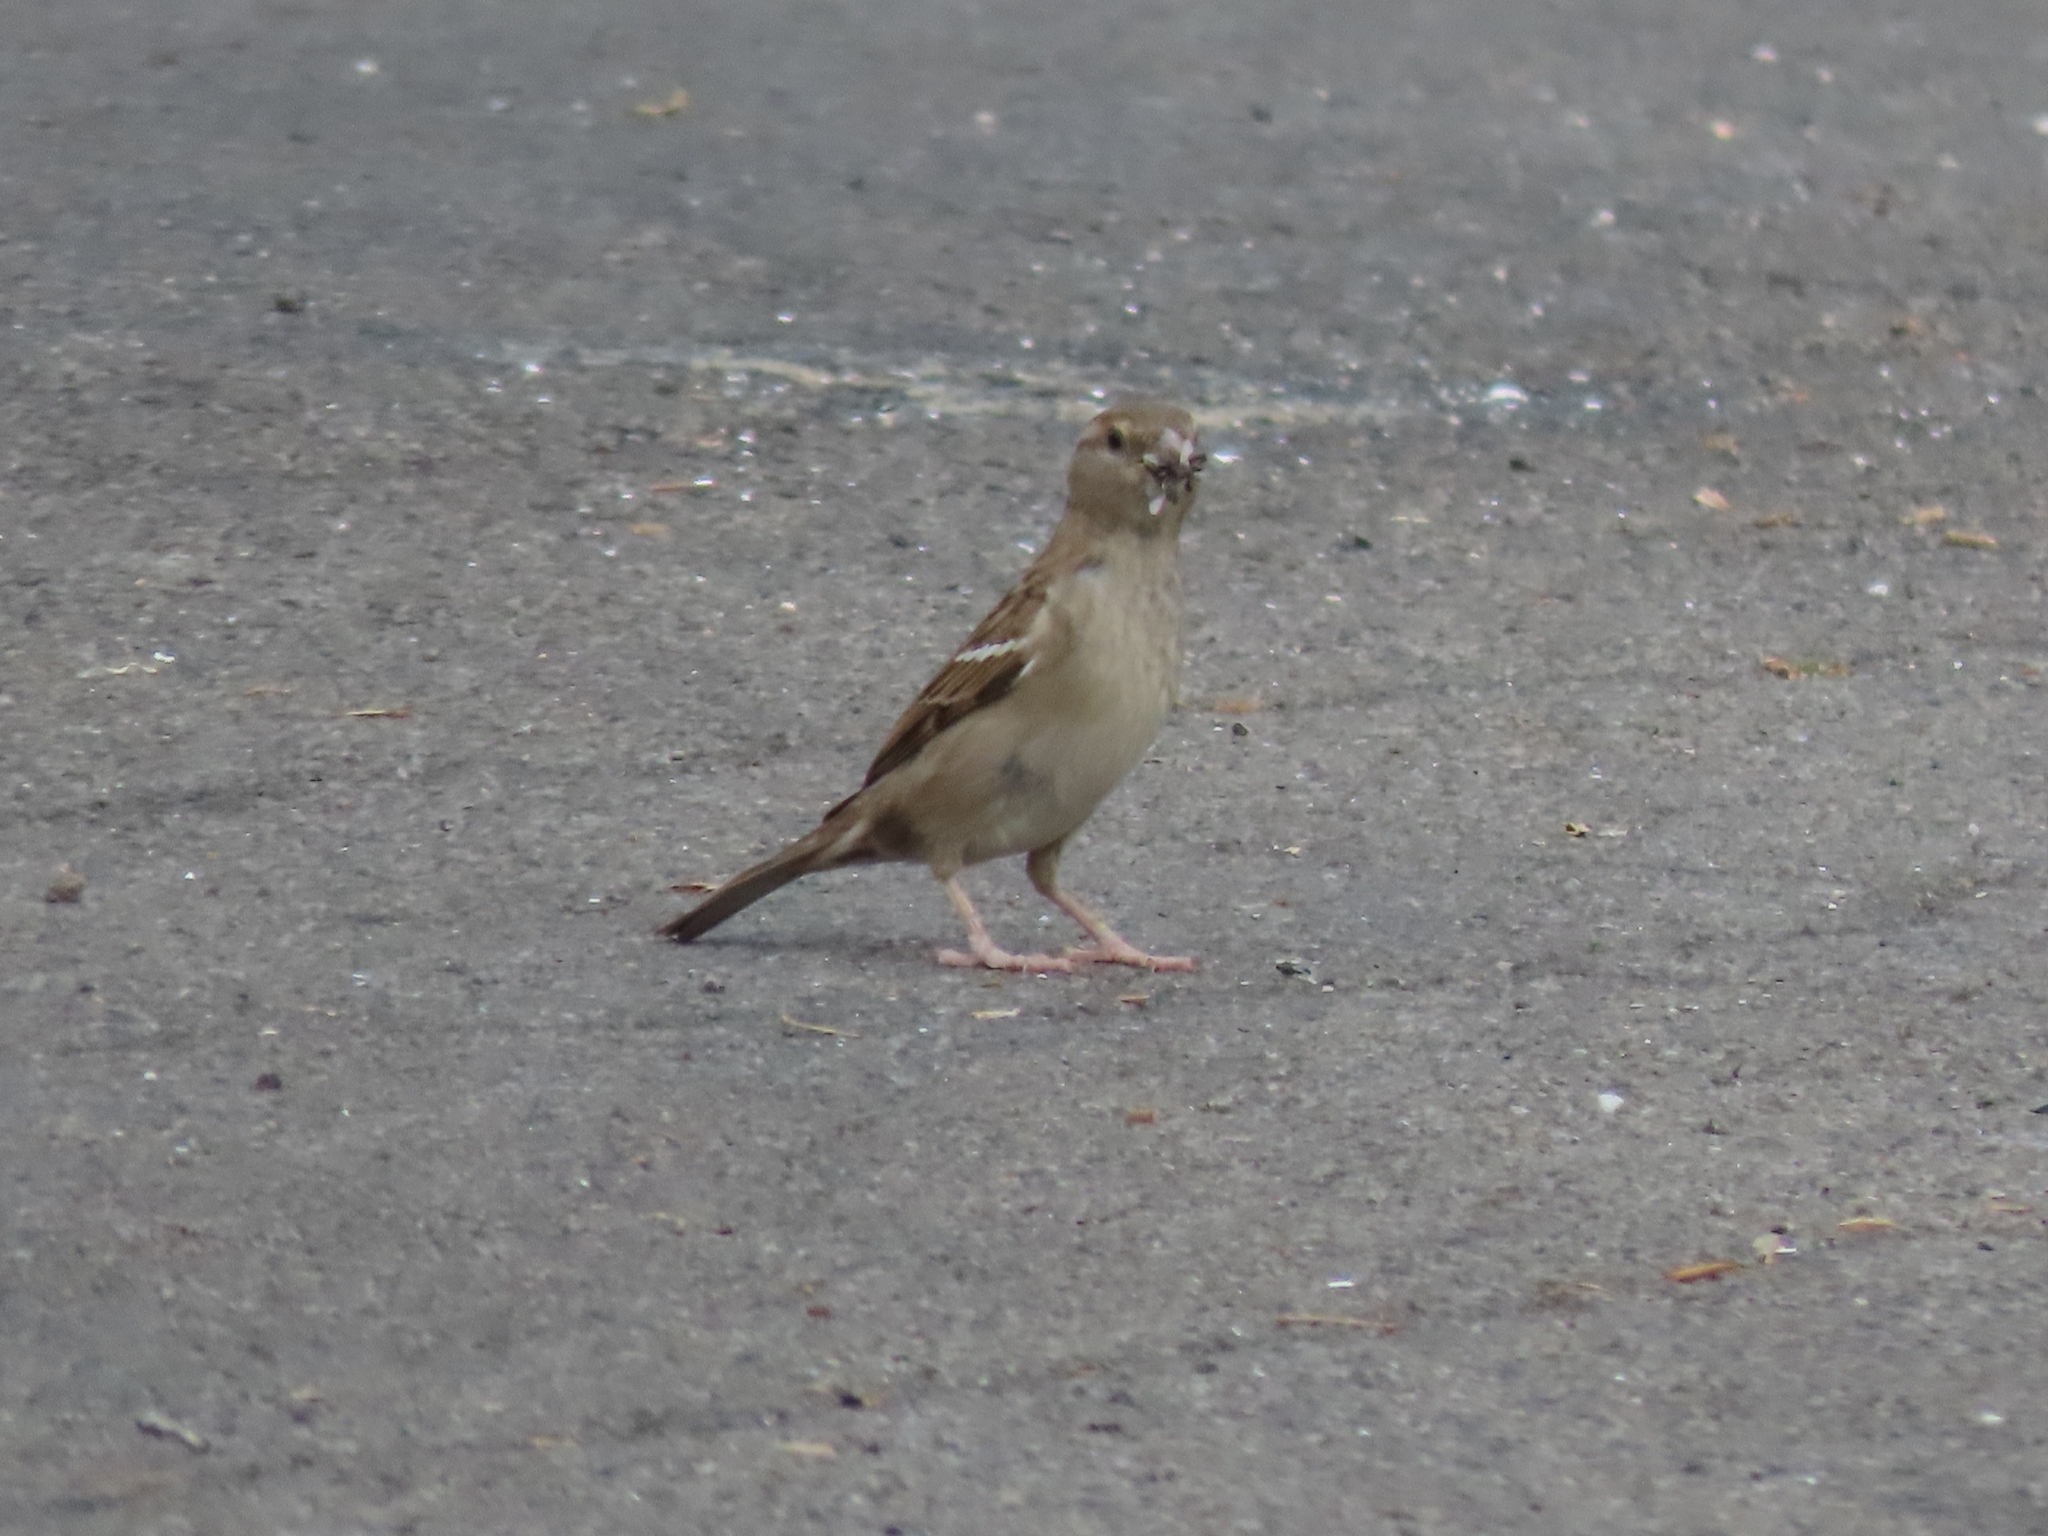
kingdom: Animalia
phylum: Chordata
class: Aves
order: Passeriformes
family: Passeridae
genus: Passer
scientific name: Passer domesticus
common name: House sparrow
